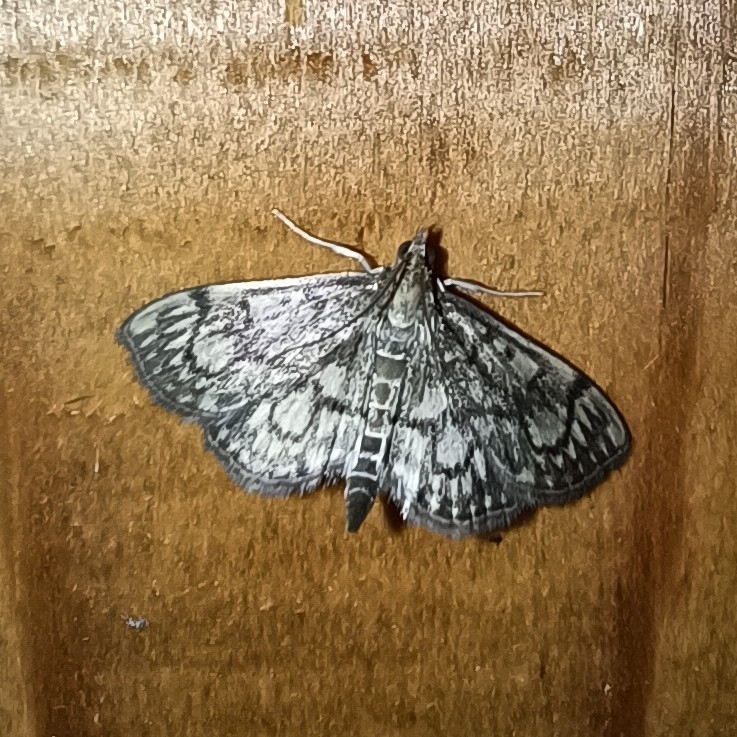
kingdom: Animalia
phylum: Arthropoda
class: Insecta
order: Lepidoptera
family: Crambidae
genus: Anania
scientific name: Anania stachydalis
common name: Woundwort pearl
